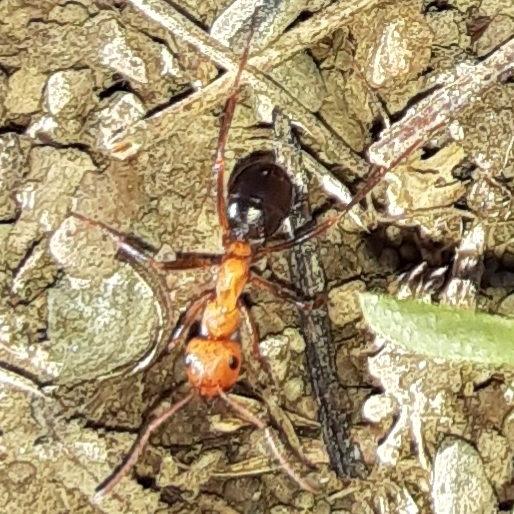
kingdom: Animalia
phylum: Arthropoda
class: Insecta
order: Hymenoptera
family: Formicidae
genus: Formica
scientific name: Formica exsectoides
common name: Allegheny mound ant
